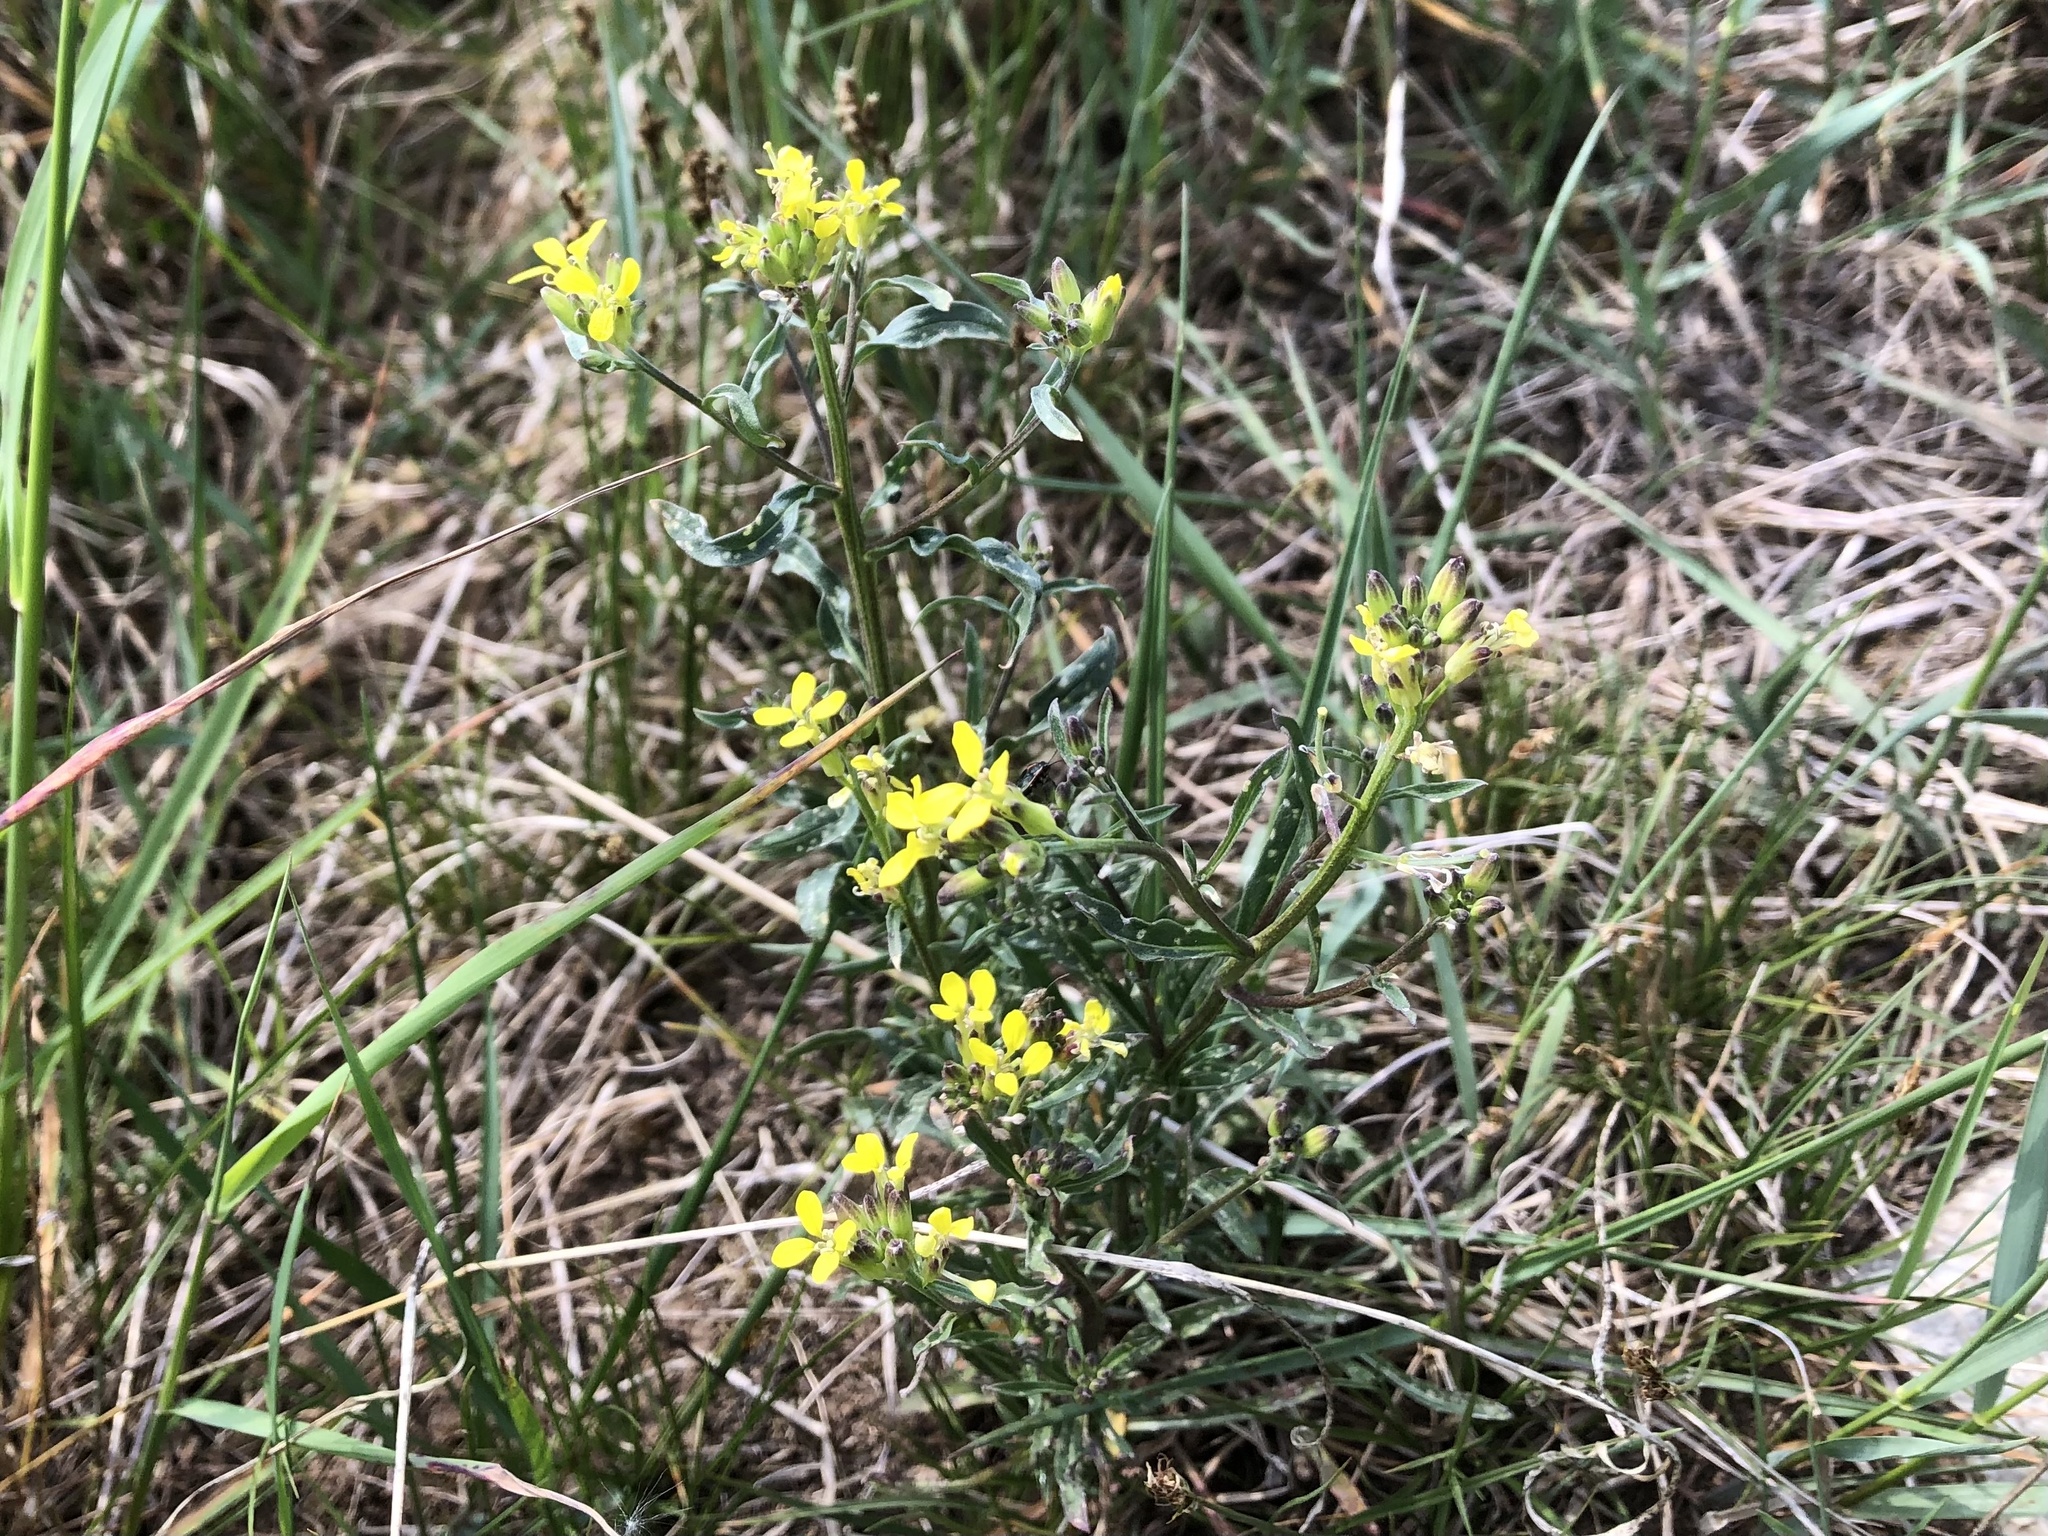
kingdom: Plantae
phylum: Tracheophyta
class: Magnoliopsida
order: Brassicales
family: Brassicaceae
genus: Erysimum
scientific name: Erysimum crepidifolium
